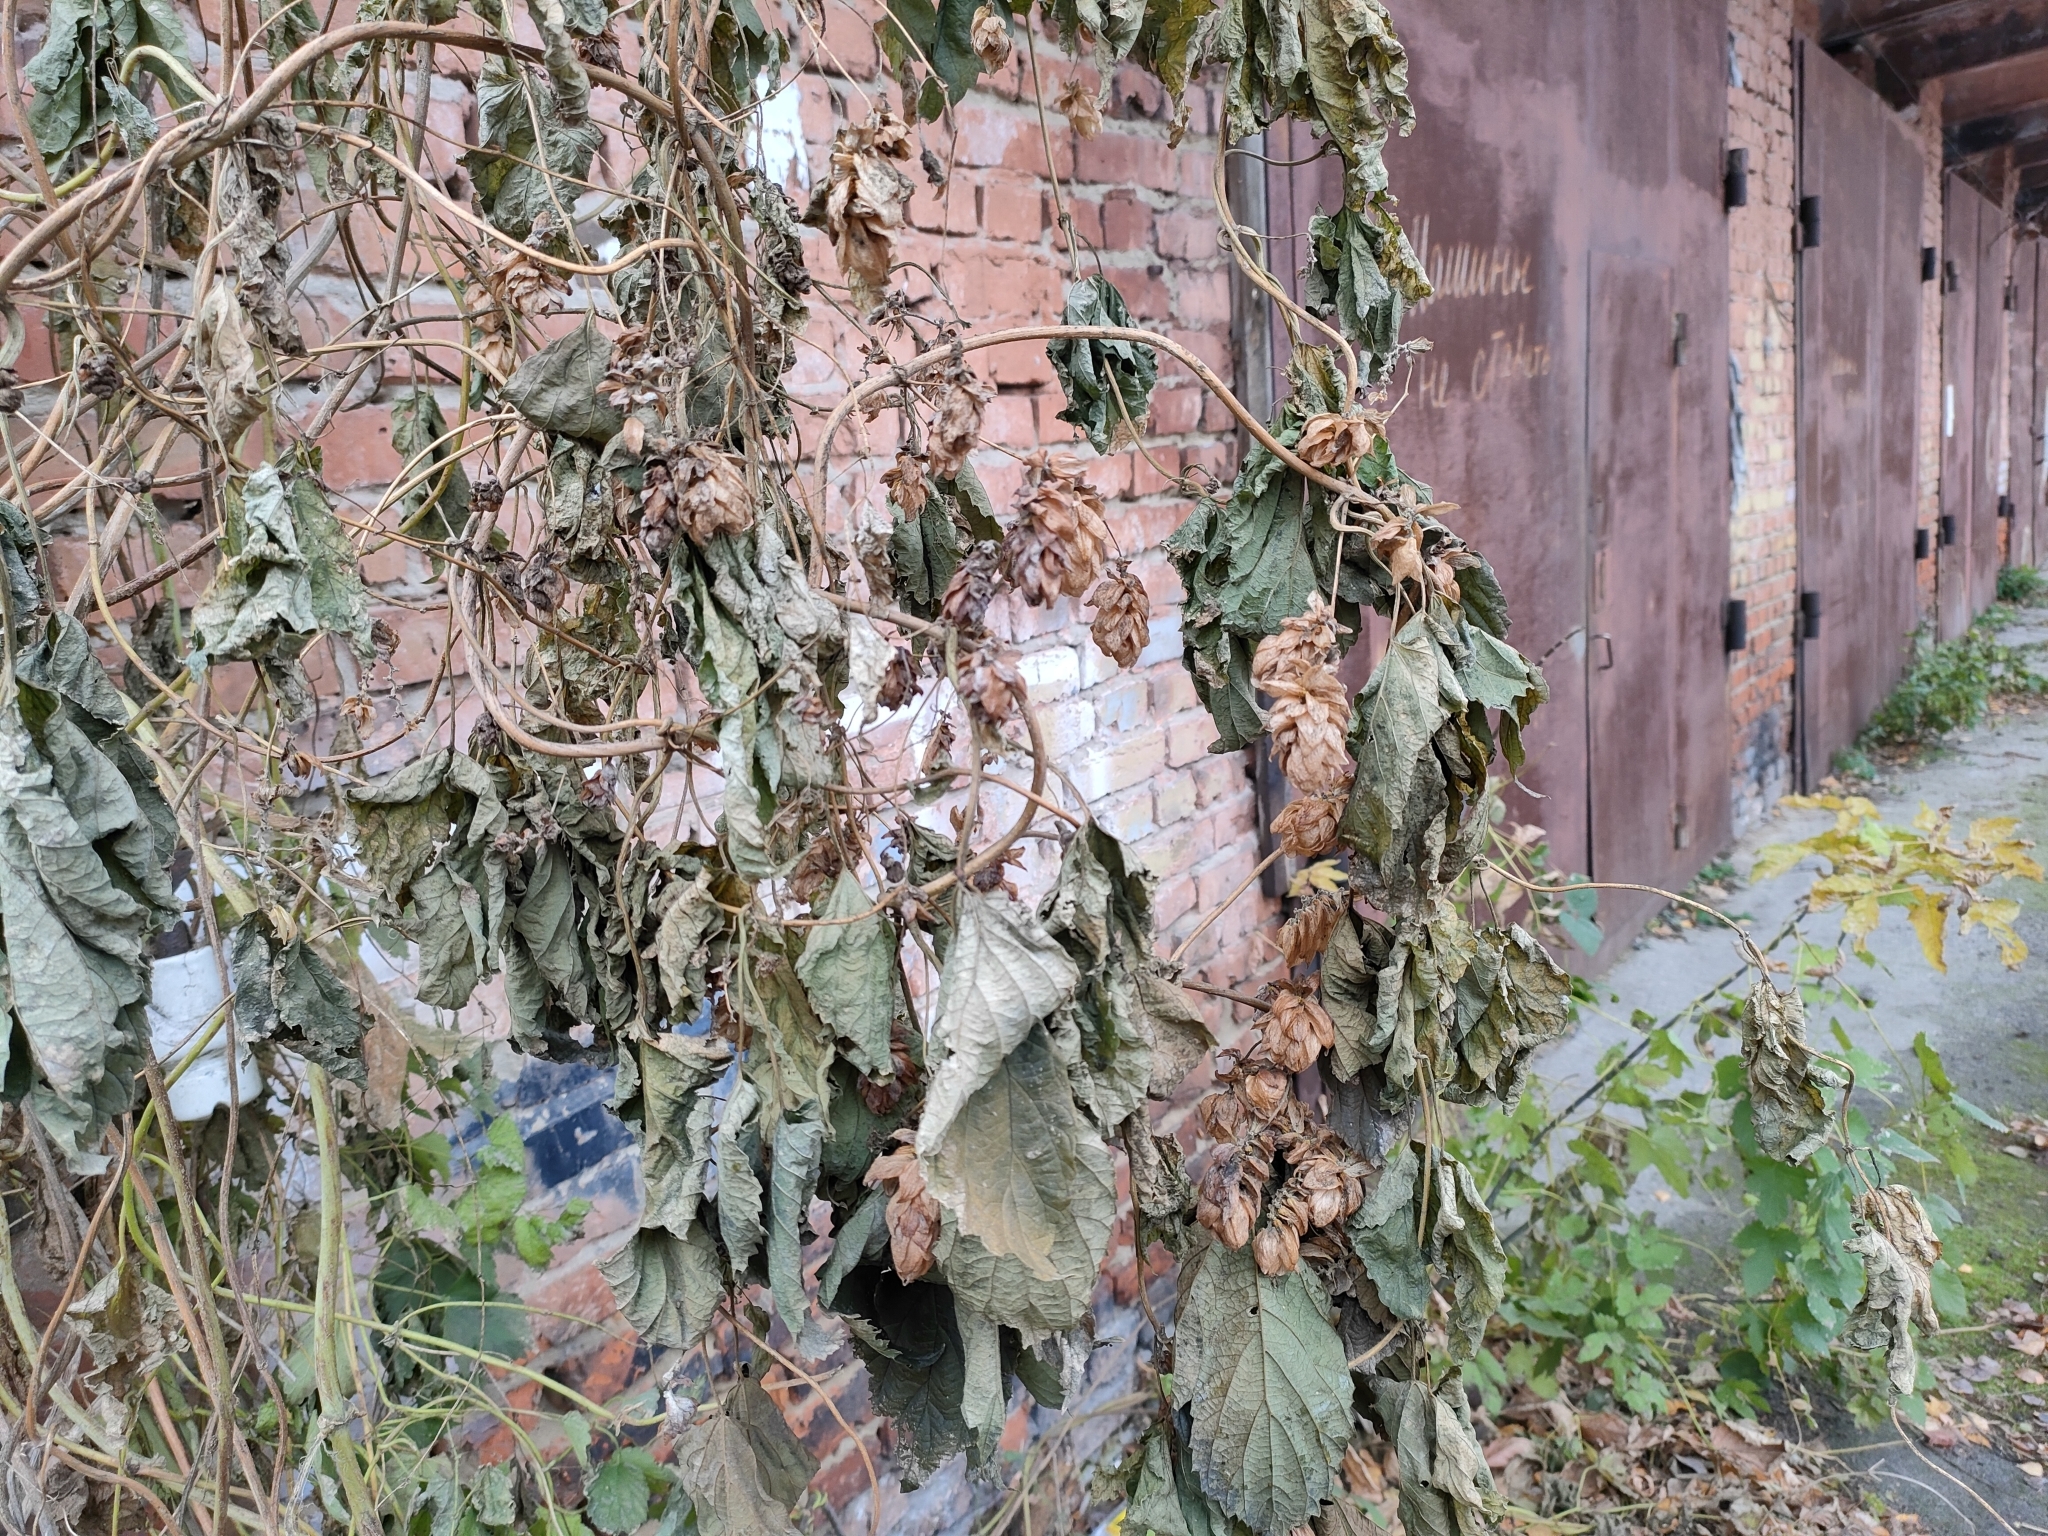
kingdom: Plantae
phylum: Tracheophyta
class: Magnoliopsida
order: Rosales
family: Cannabaceae
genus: Humulus
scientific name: Humulus lupulus
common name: Hop
